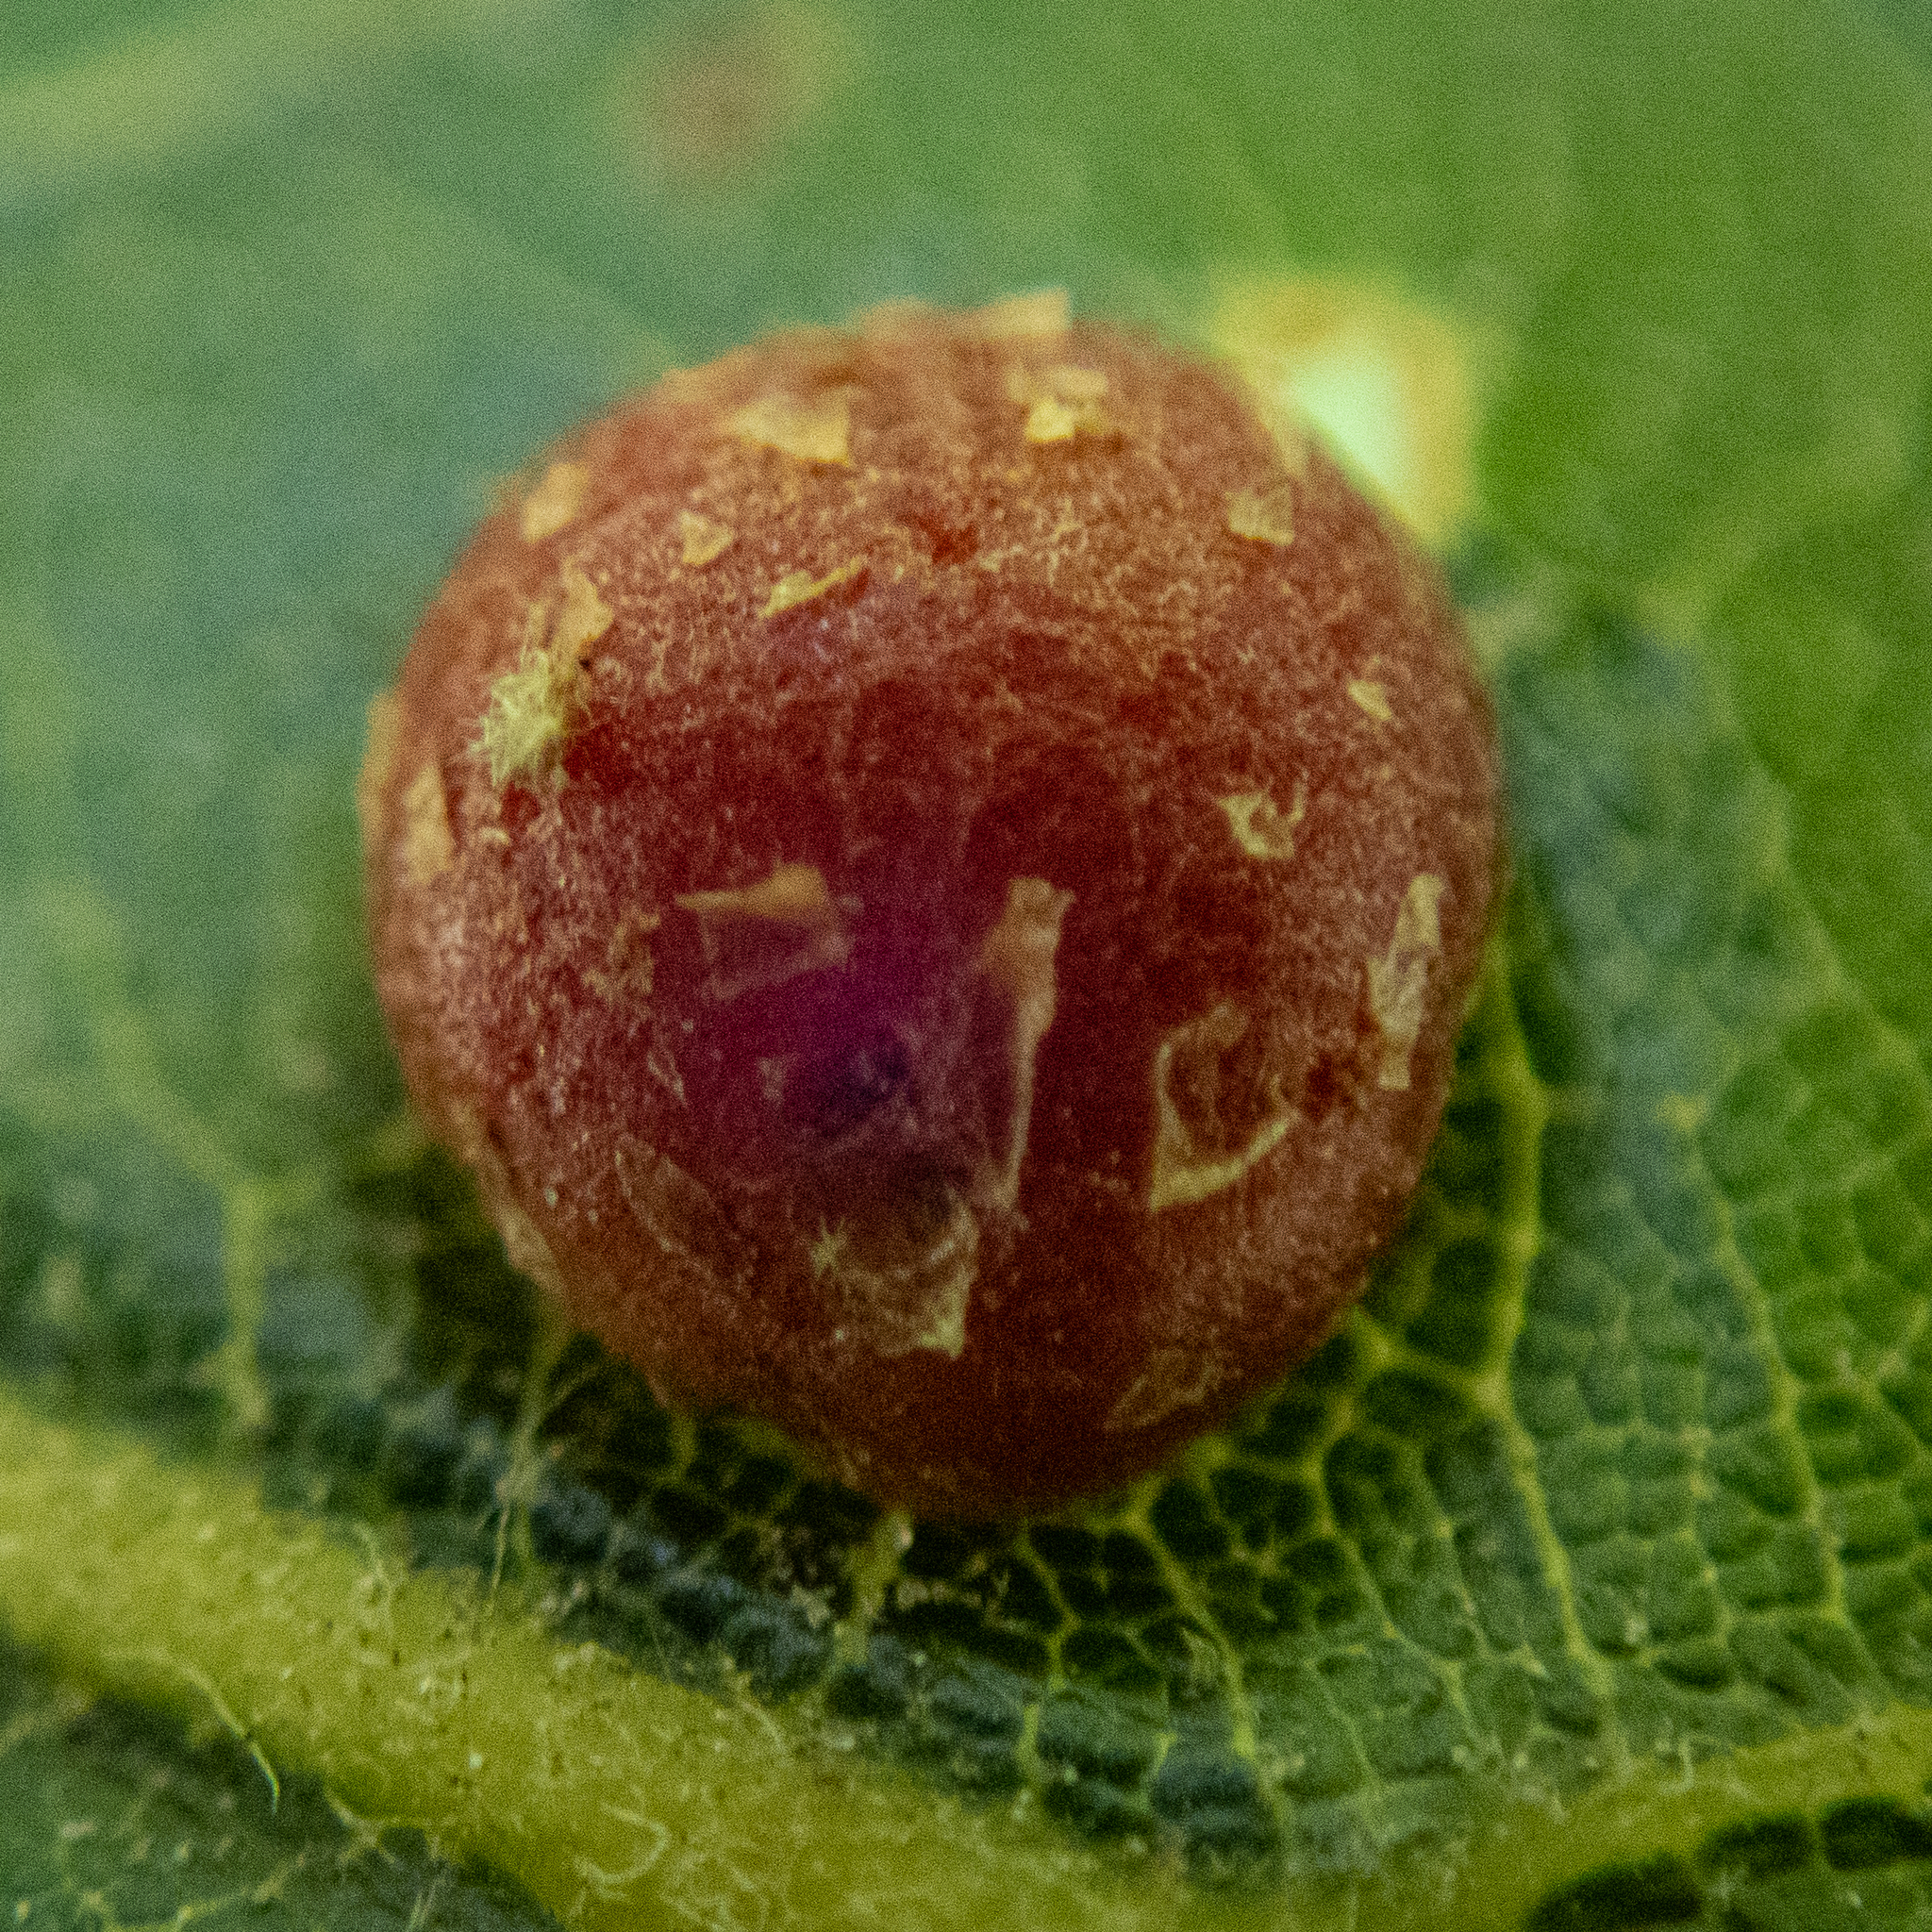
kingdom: Animalia
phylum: Arthropoda
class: Insecta
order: Diptera
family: Cecidomyiidae
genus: Polystepha
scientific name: Polystepha pilulae
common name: Oak leaf gall midge
